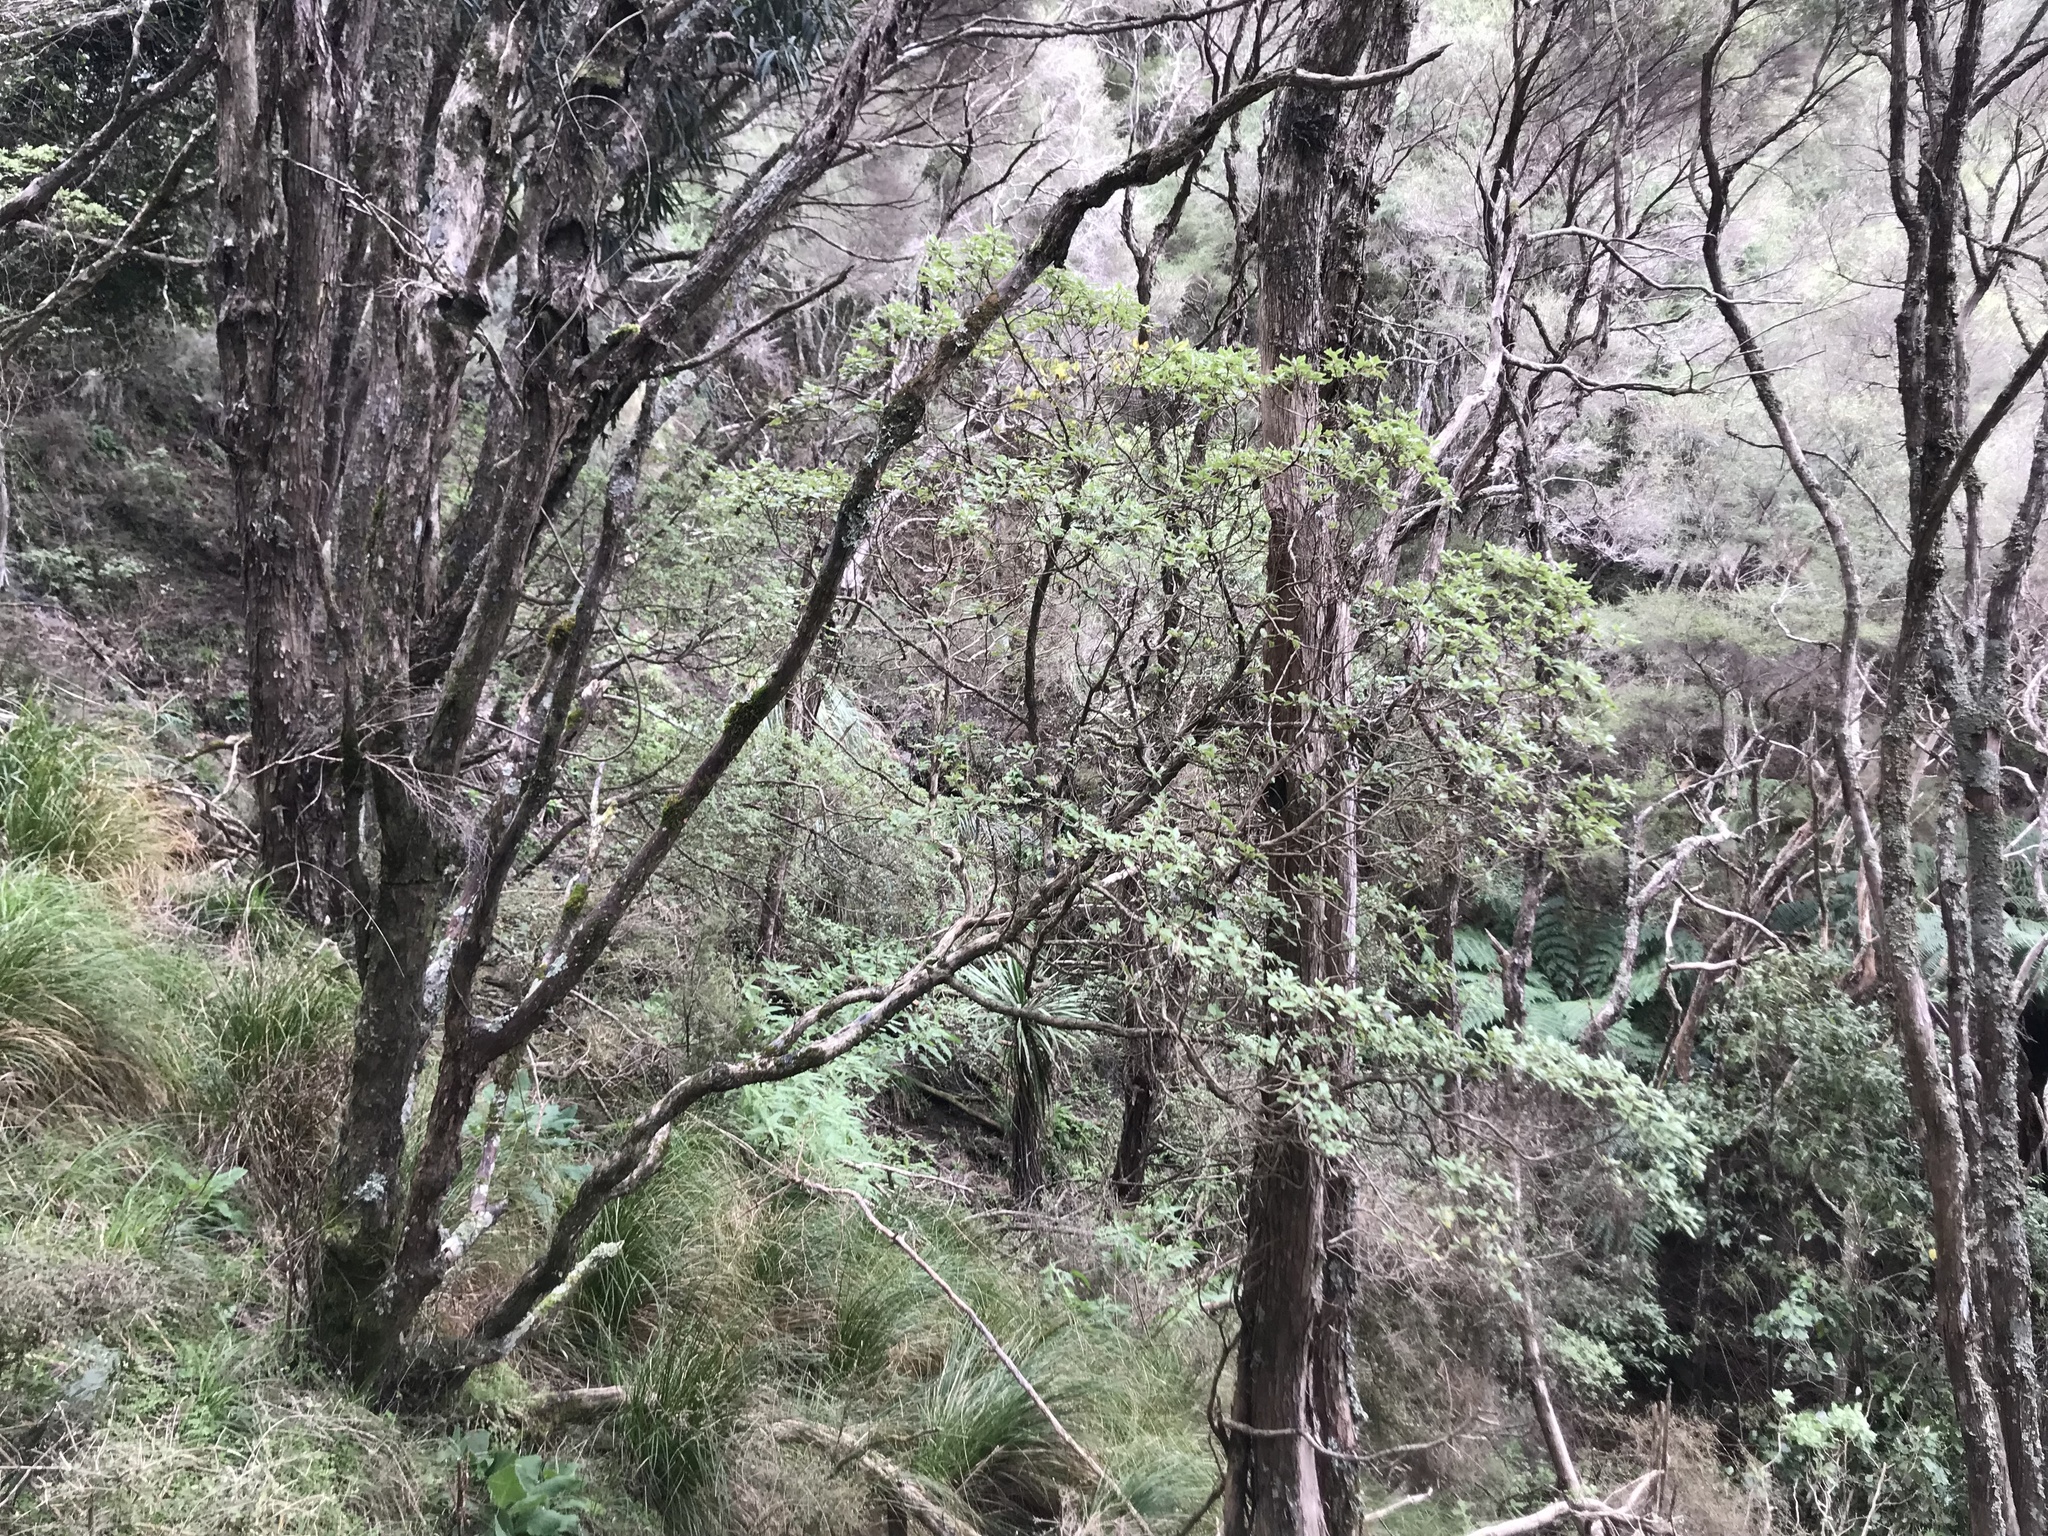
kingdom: Plantae
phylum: Tracheophyta
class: Magnoliopsida
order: Asterales
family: Asteraceae
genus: Brachyglottis
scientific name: Brachyglottis pentacopa
